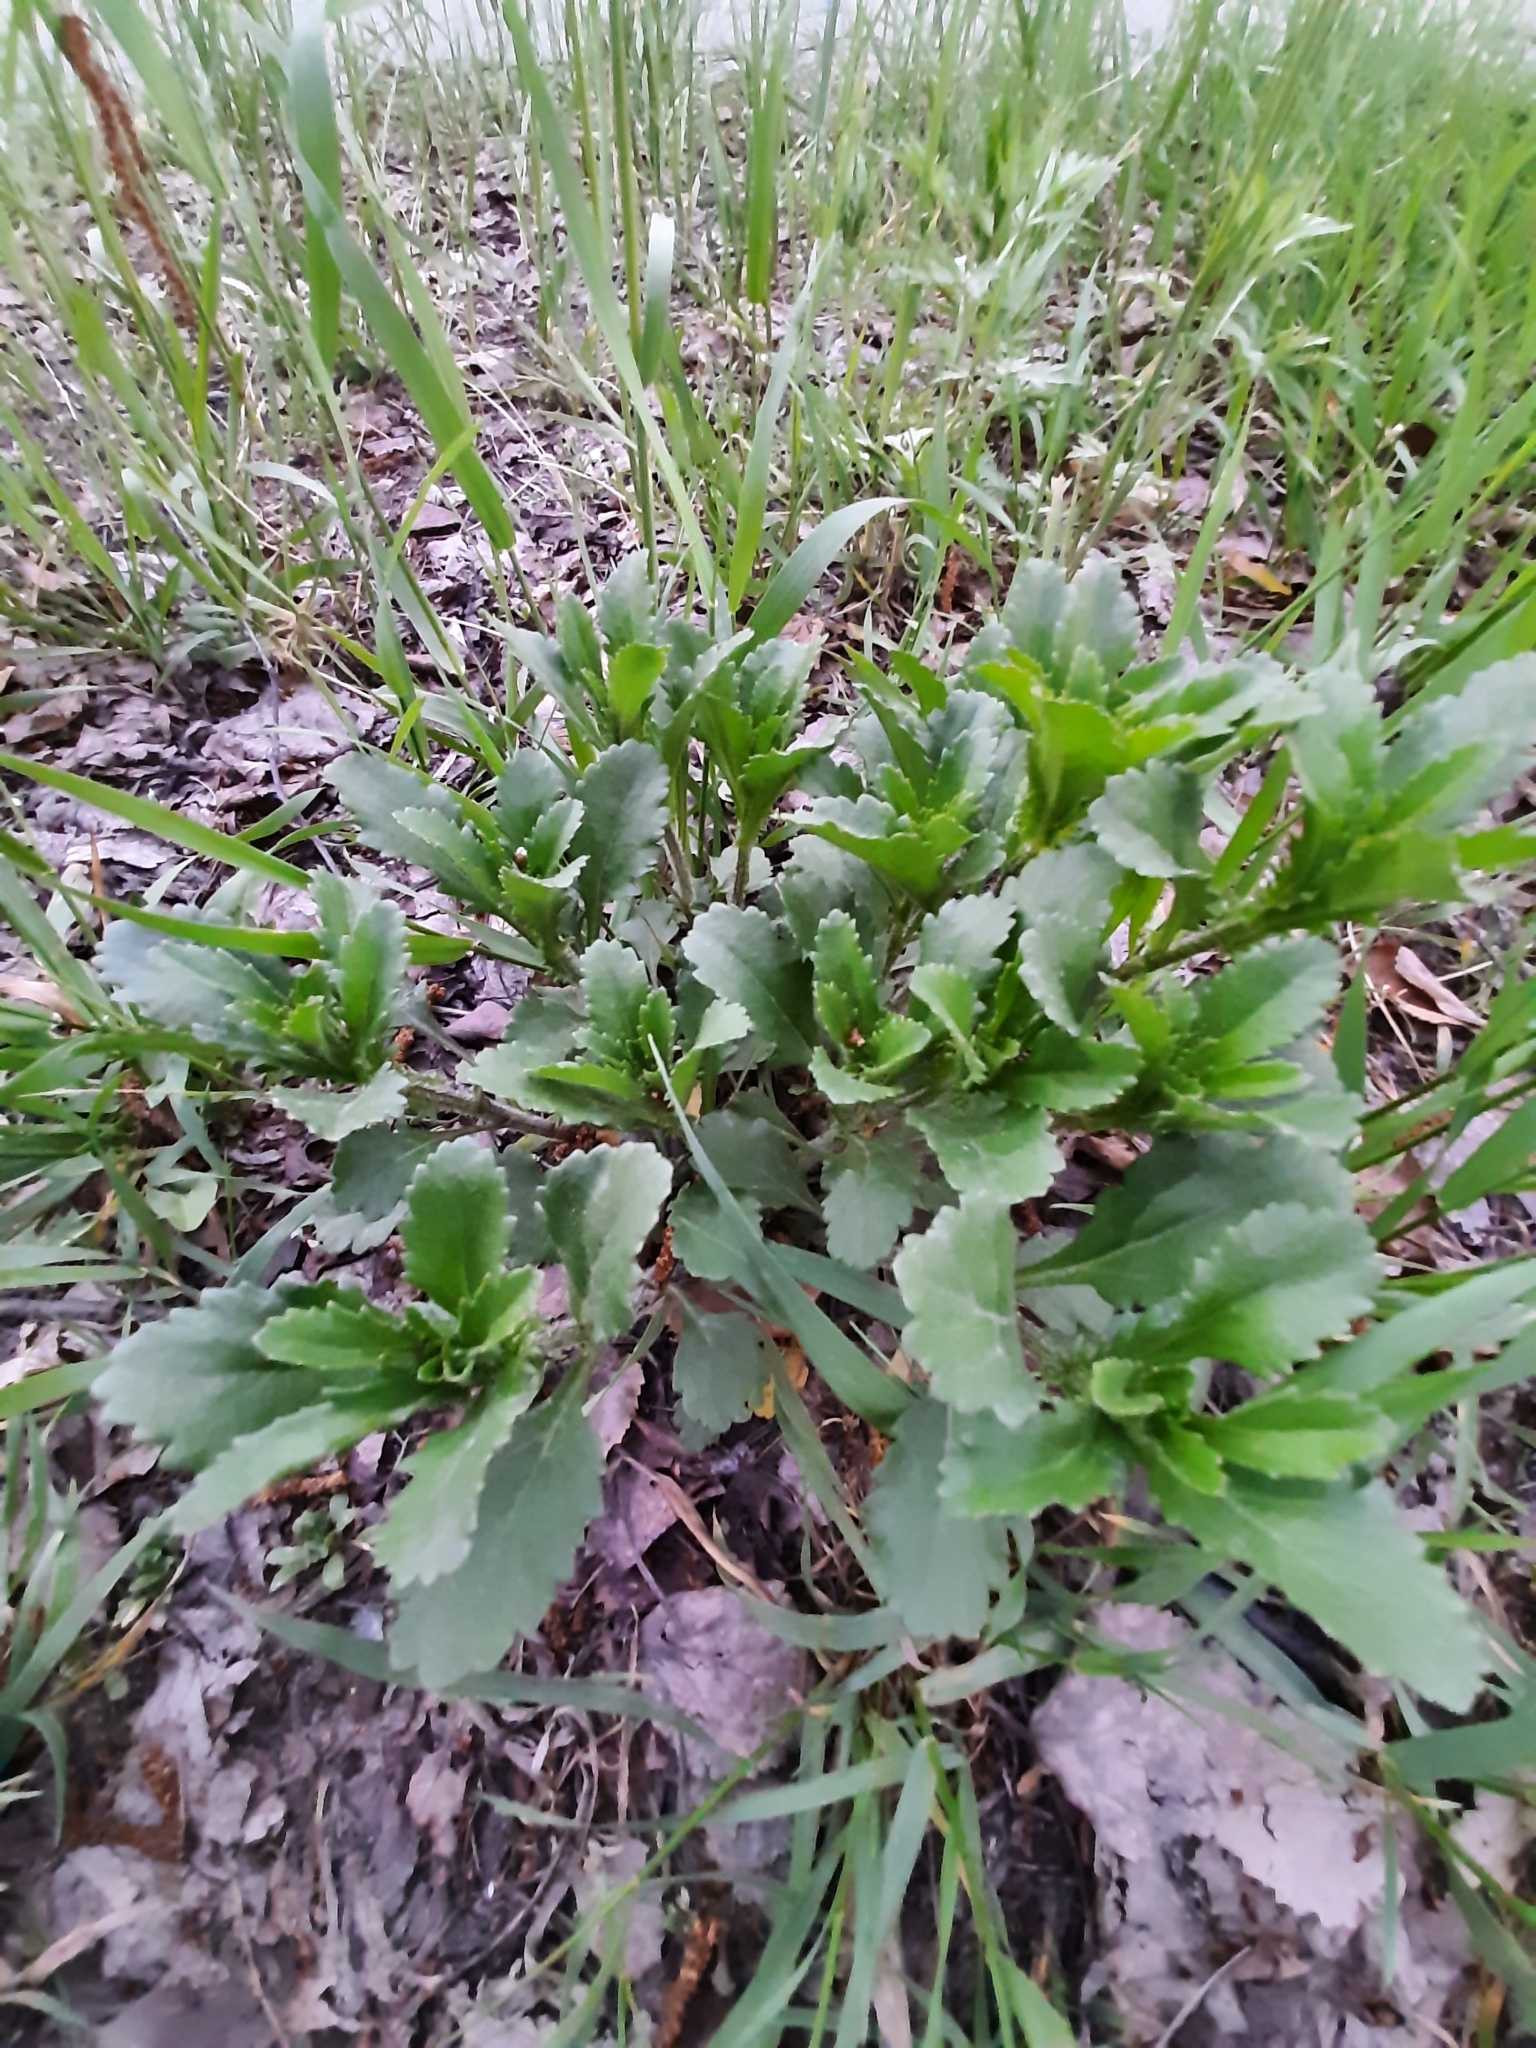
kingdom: Plantae
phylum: Tracheophyta
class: Magnoliopsida
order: Asterales
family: Asteraceae
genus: Leucanthemum
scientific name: Leucanthemum ircutianum
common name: Daisy
